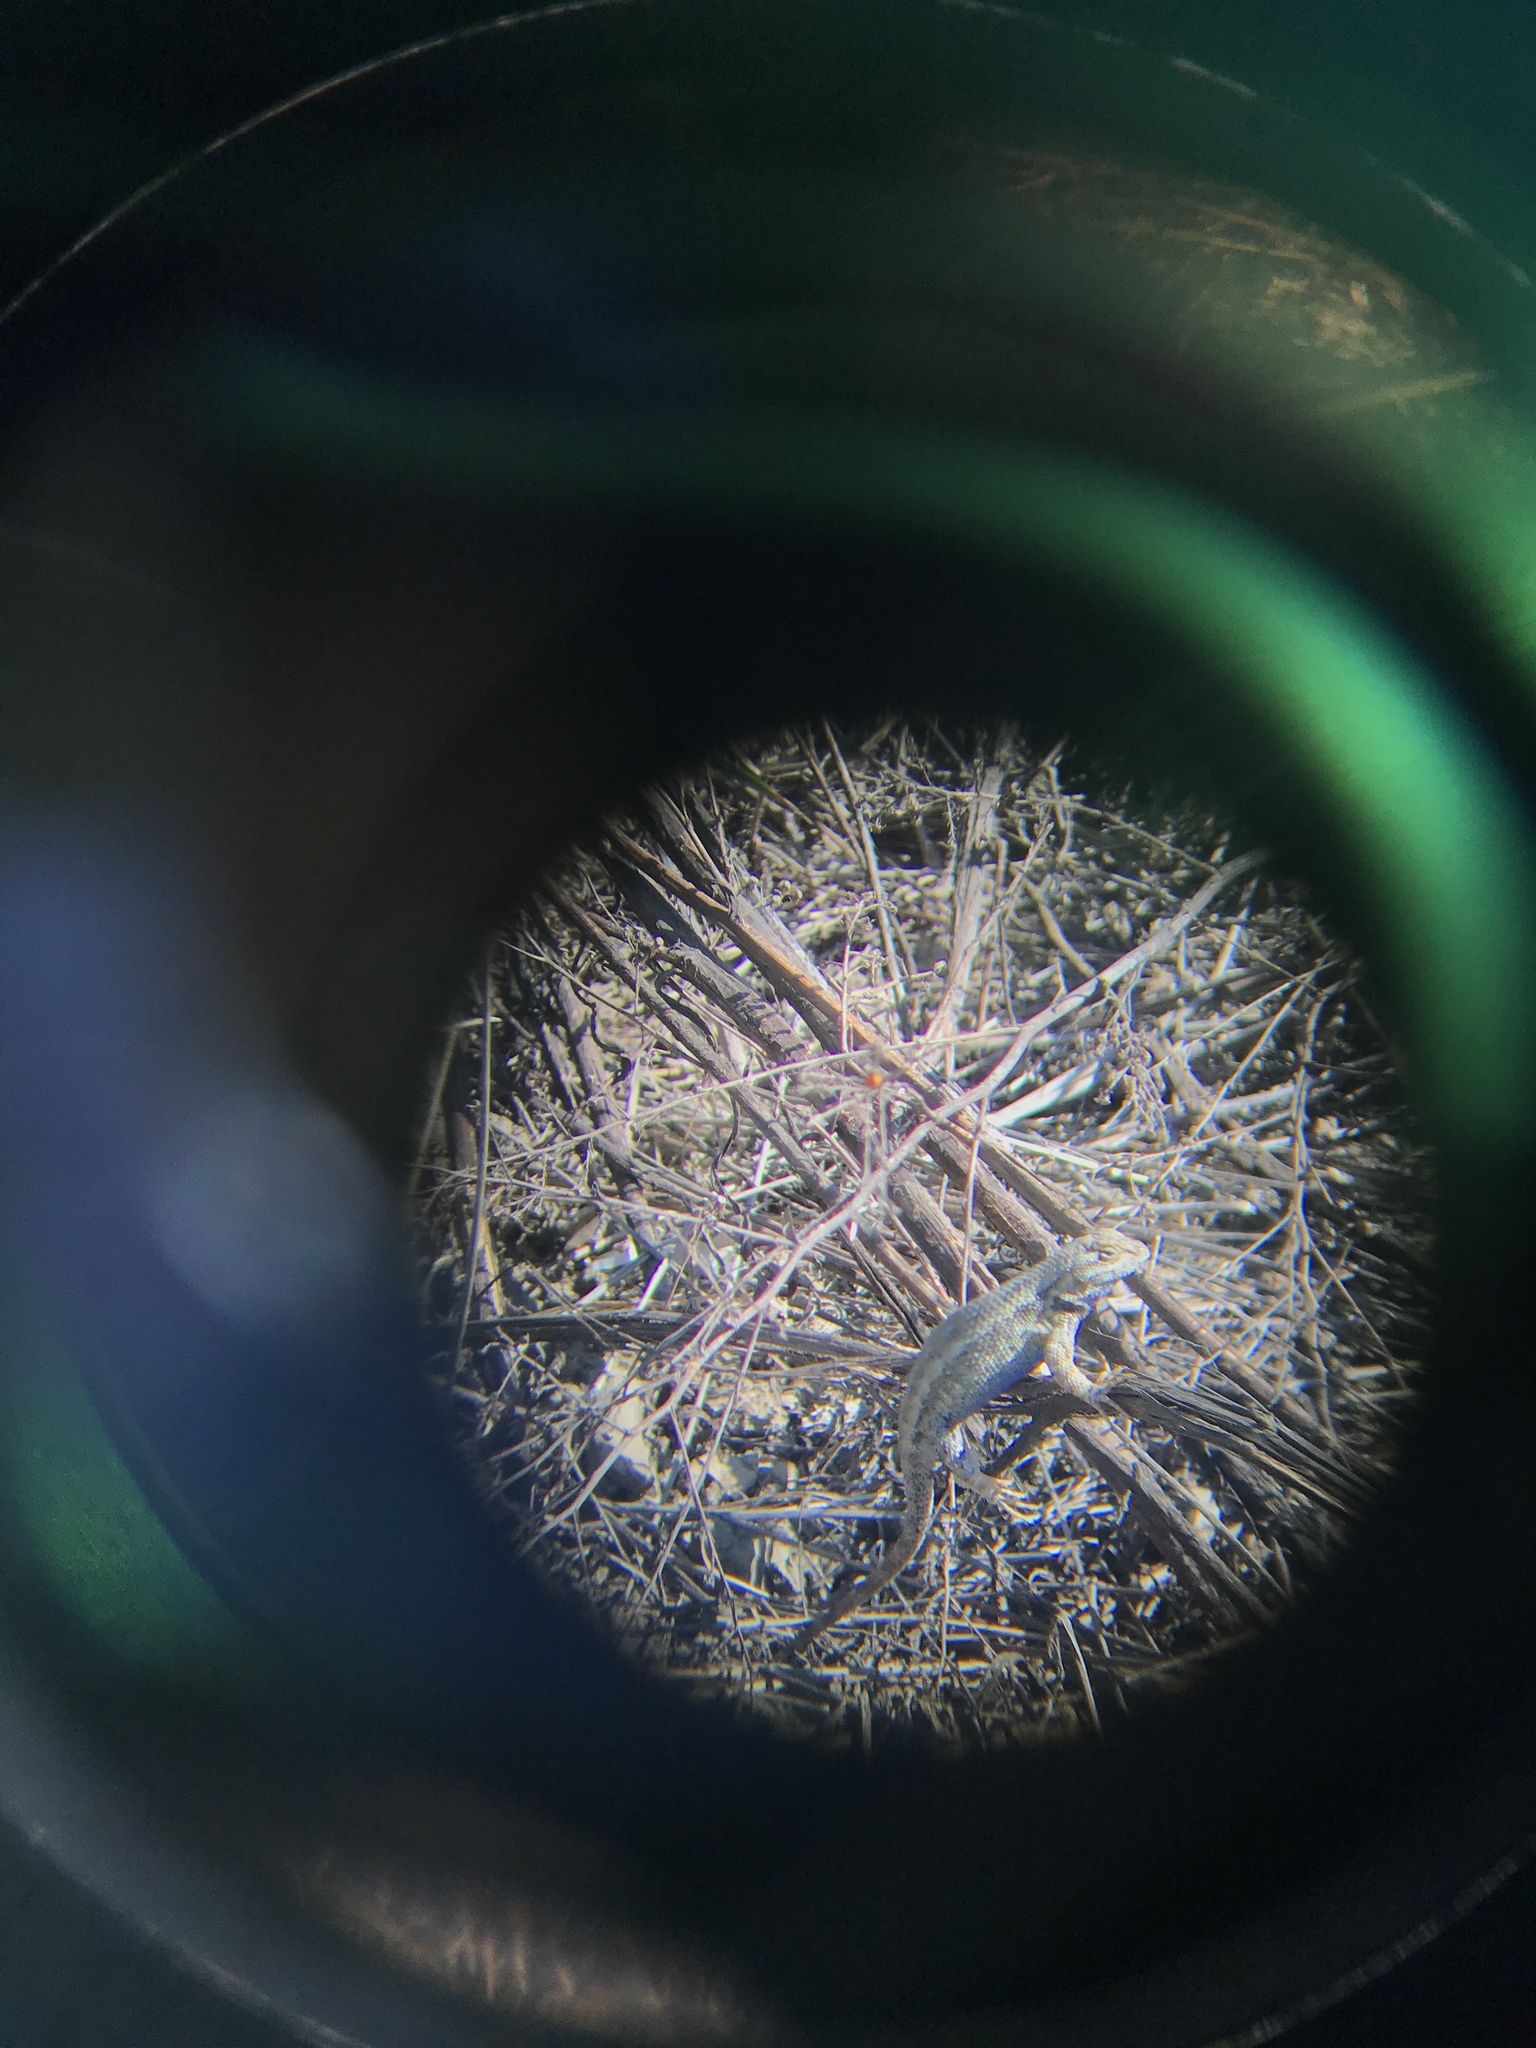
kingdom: Animalia
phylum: Chordata
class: Squamata
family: Phrynosomatidae
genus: Sceloporus
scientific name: Sceloporus occidentalis
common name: Western fence lizard
